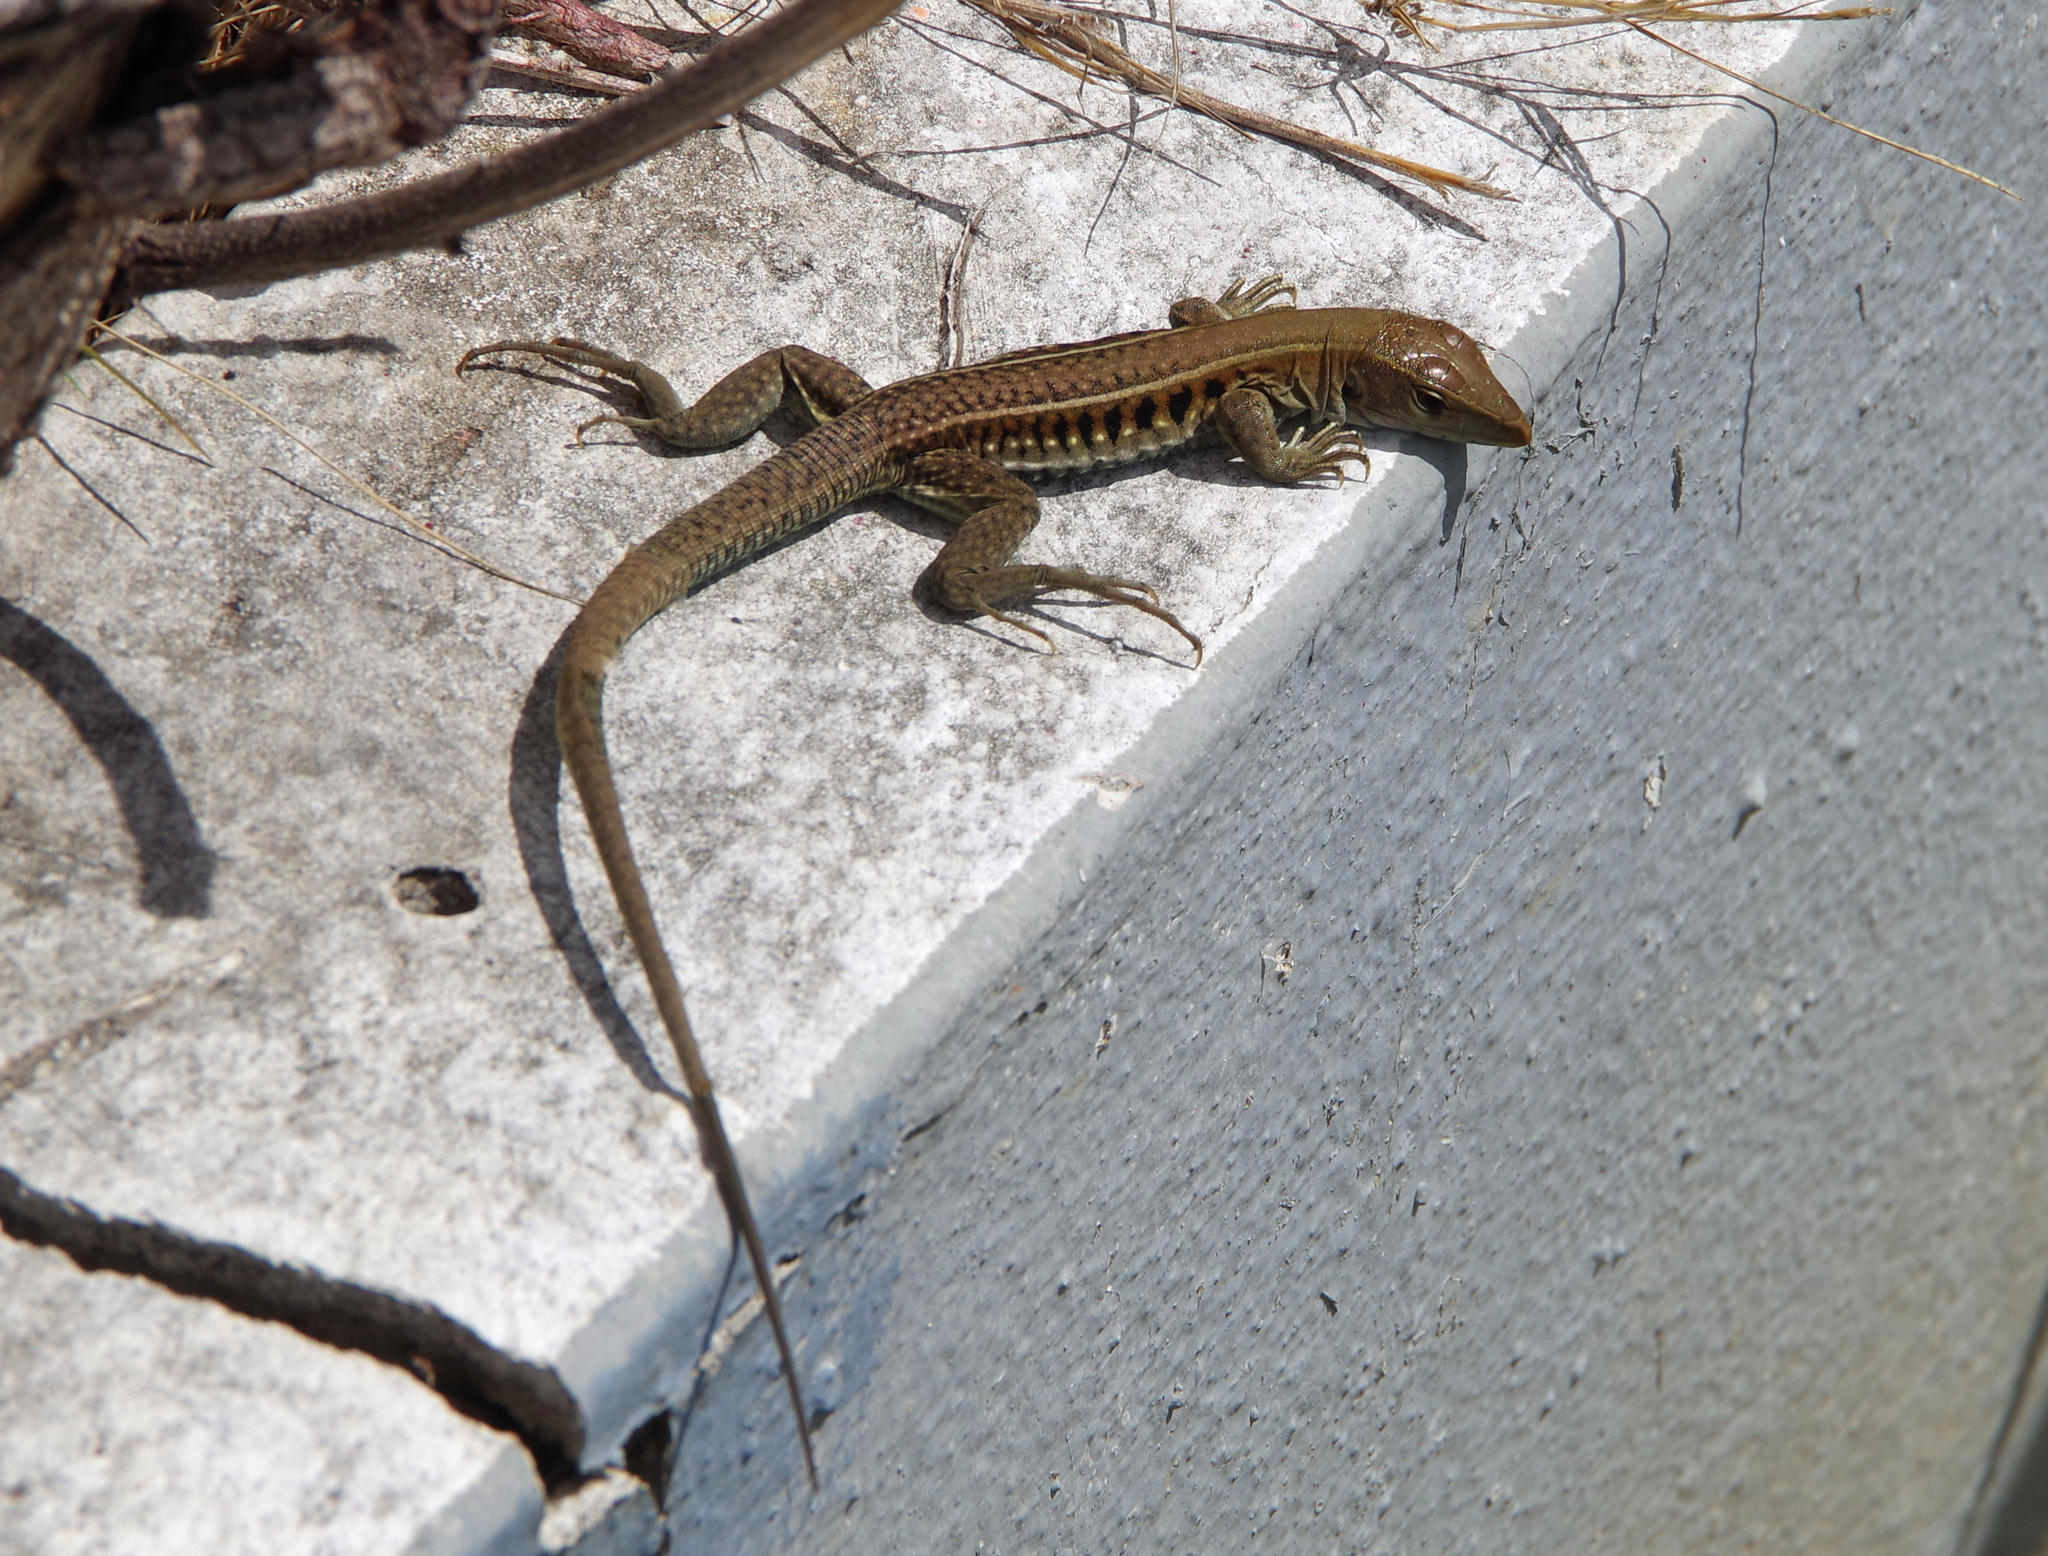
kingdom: Animalia
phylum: Chordata
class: Squamata
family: Teiidae
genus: Pholidoscelis
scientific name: Pholidoscelis exsul
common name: Common puerto rican ameiva
